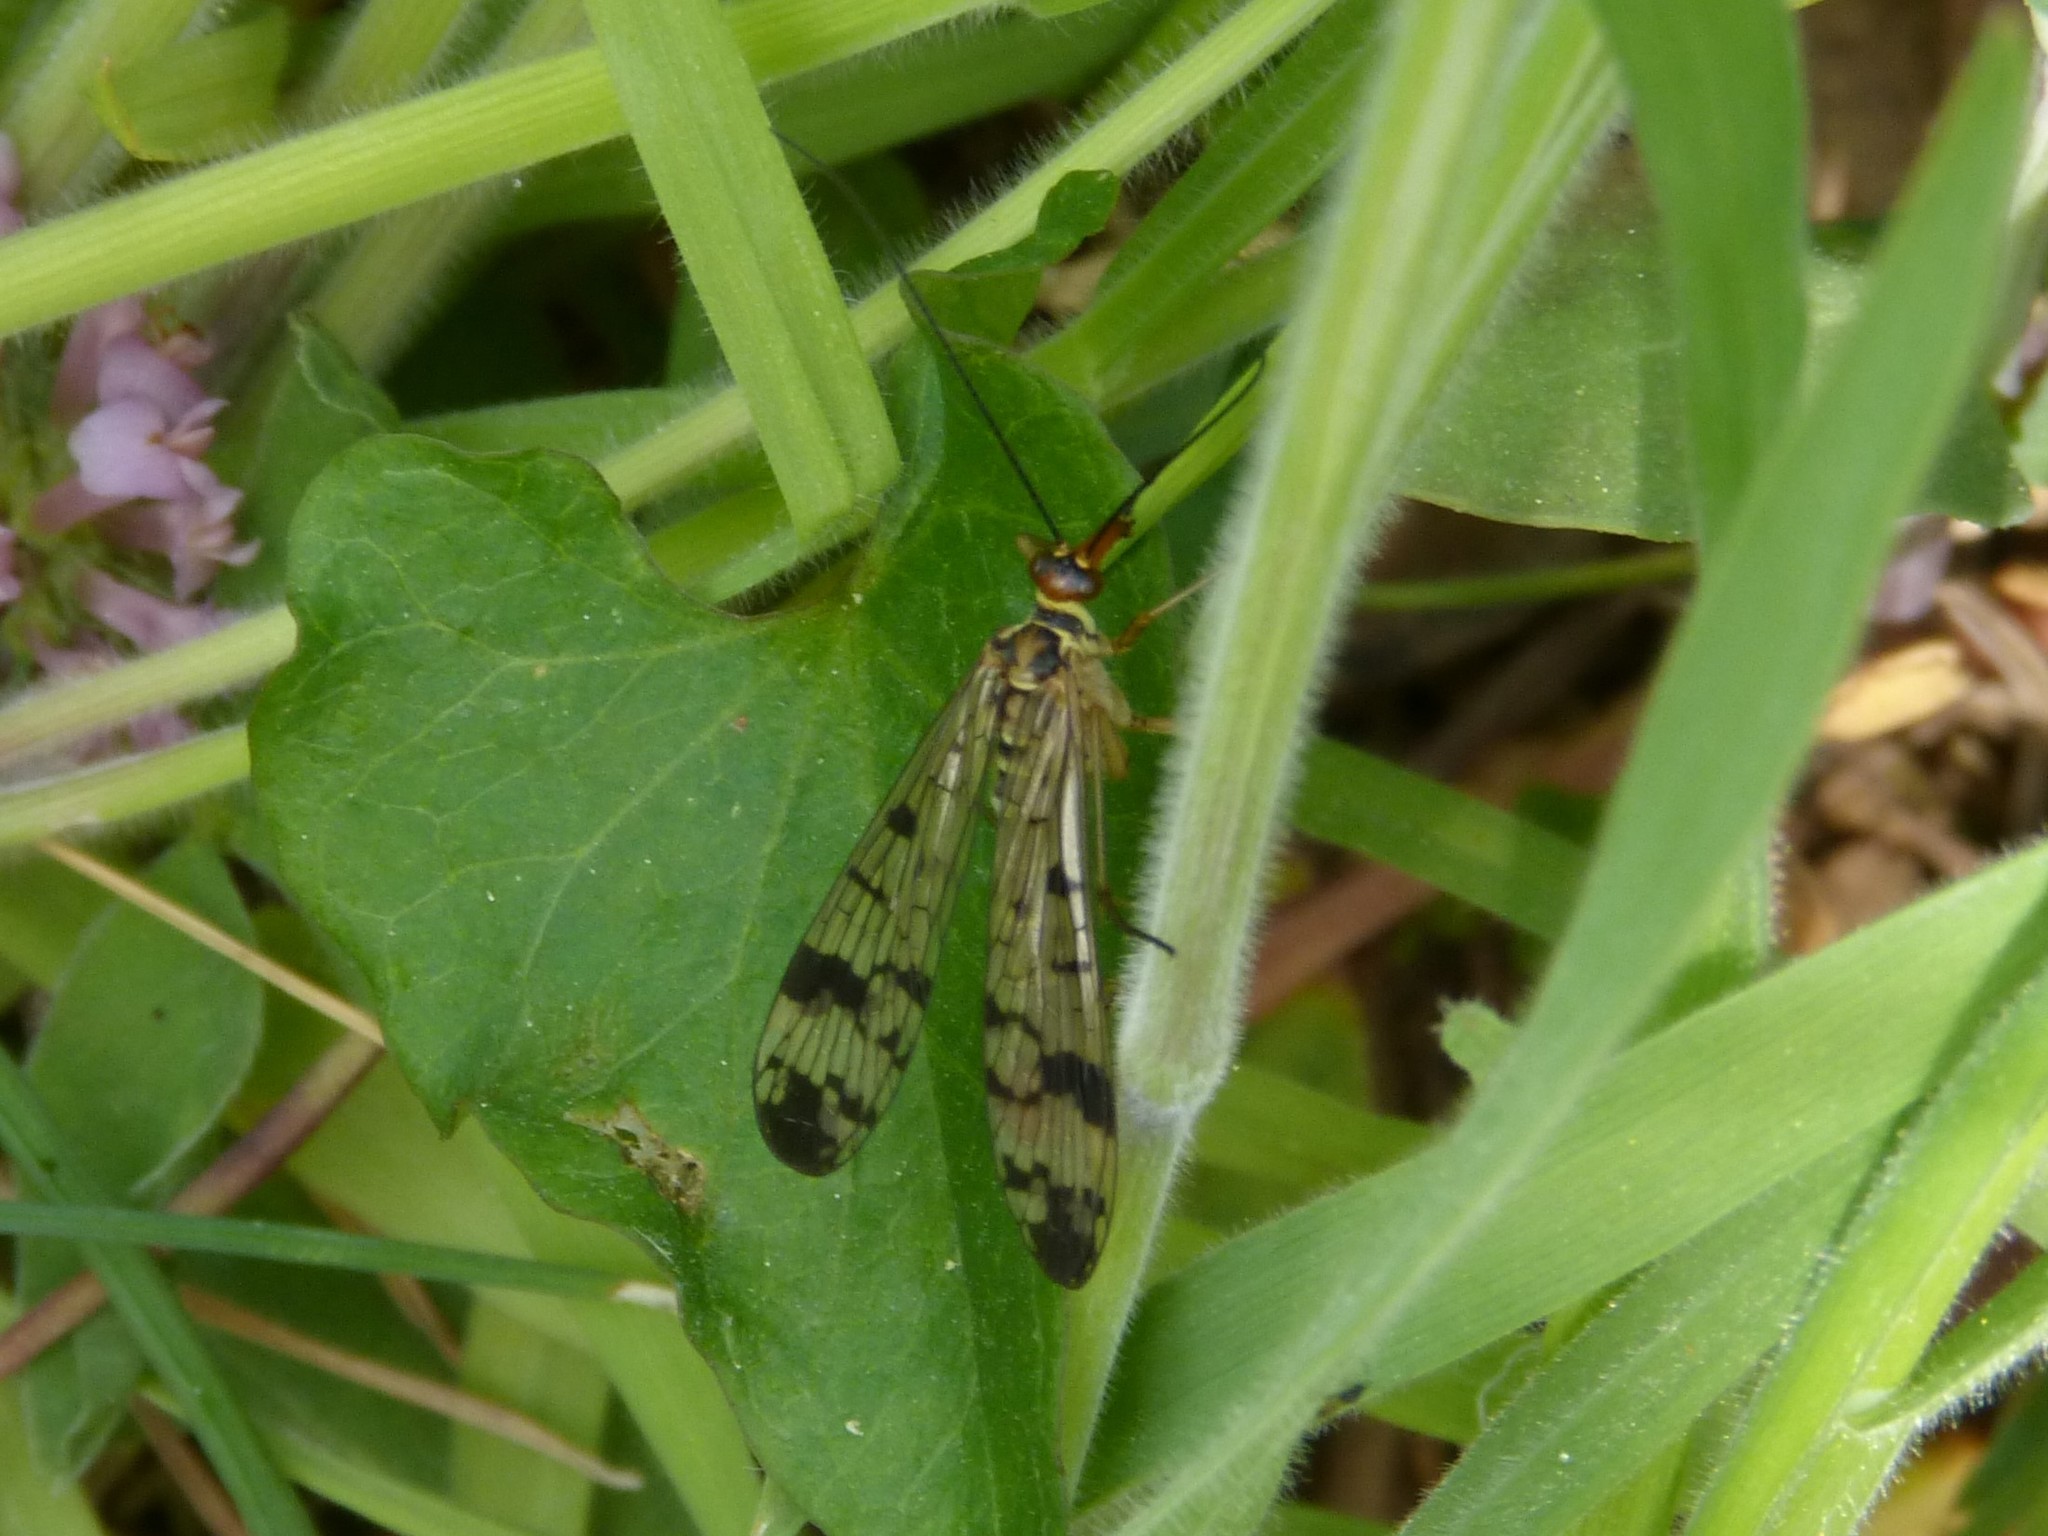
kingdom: Animalia
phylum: Arthropoda
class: Insecta
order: Mecoptera
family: Panorpidae
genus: Panorpa
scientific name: Panorpa communis
